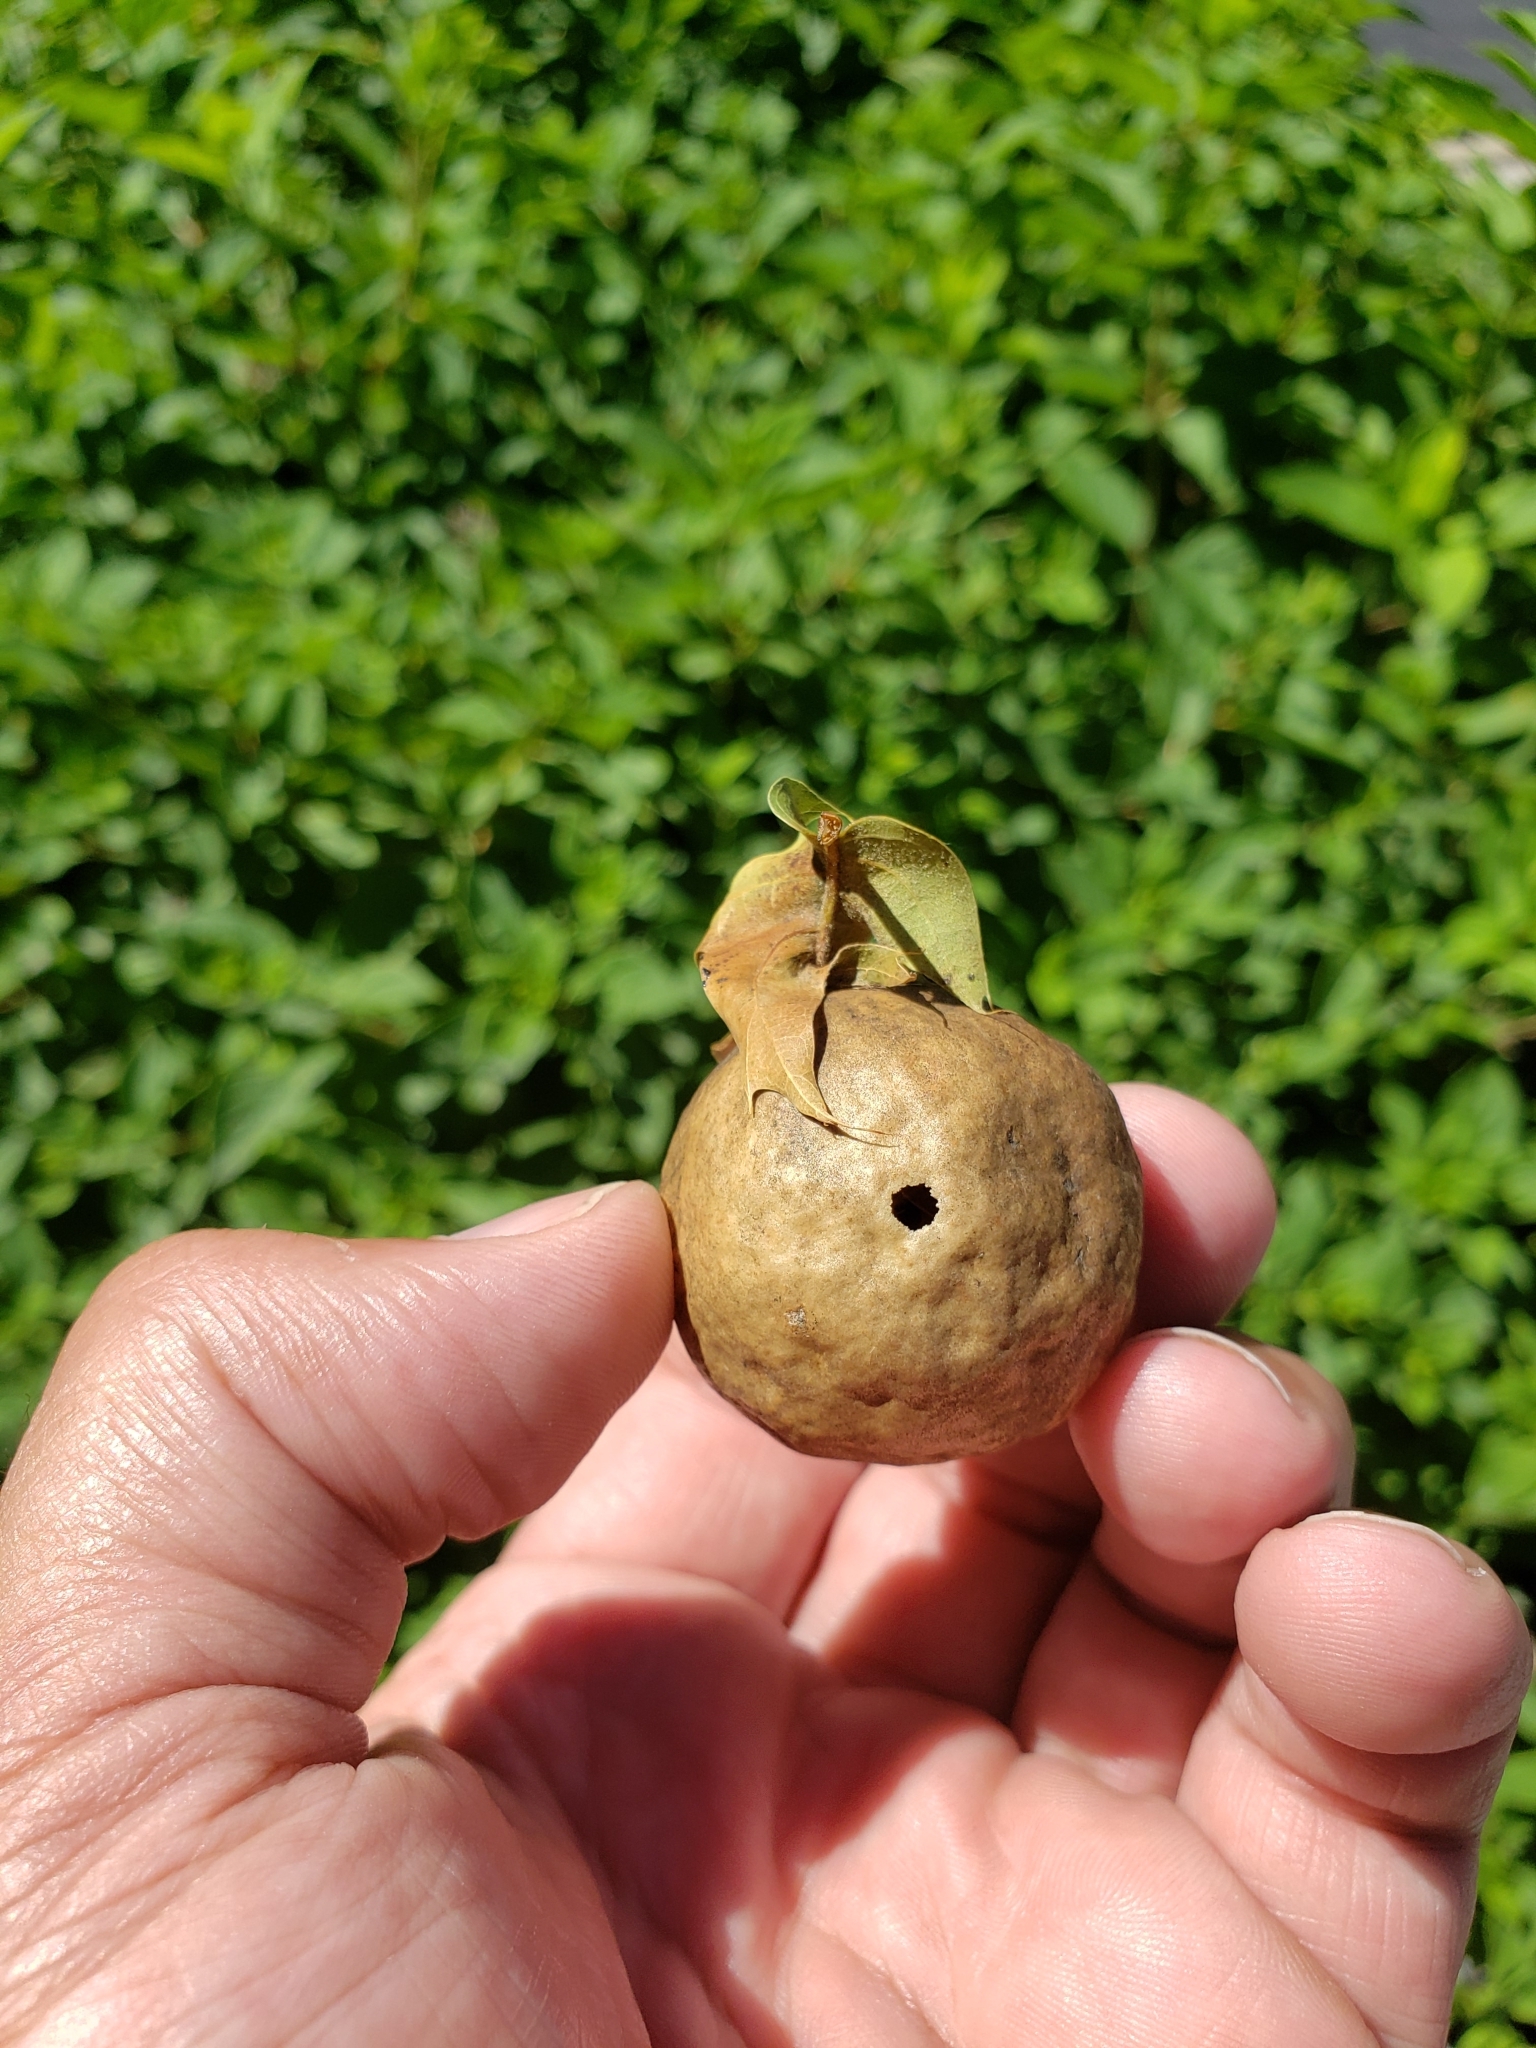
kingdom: Animalia
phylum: Arthropoda
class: Insecta
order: Hymenoptera
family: Cynipidae
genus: Amphibolips
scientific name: Amphibolips
